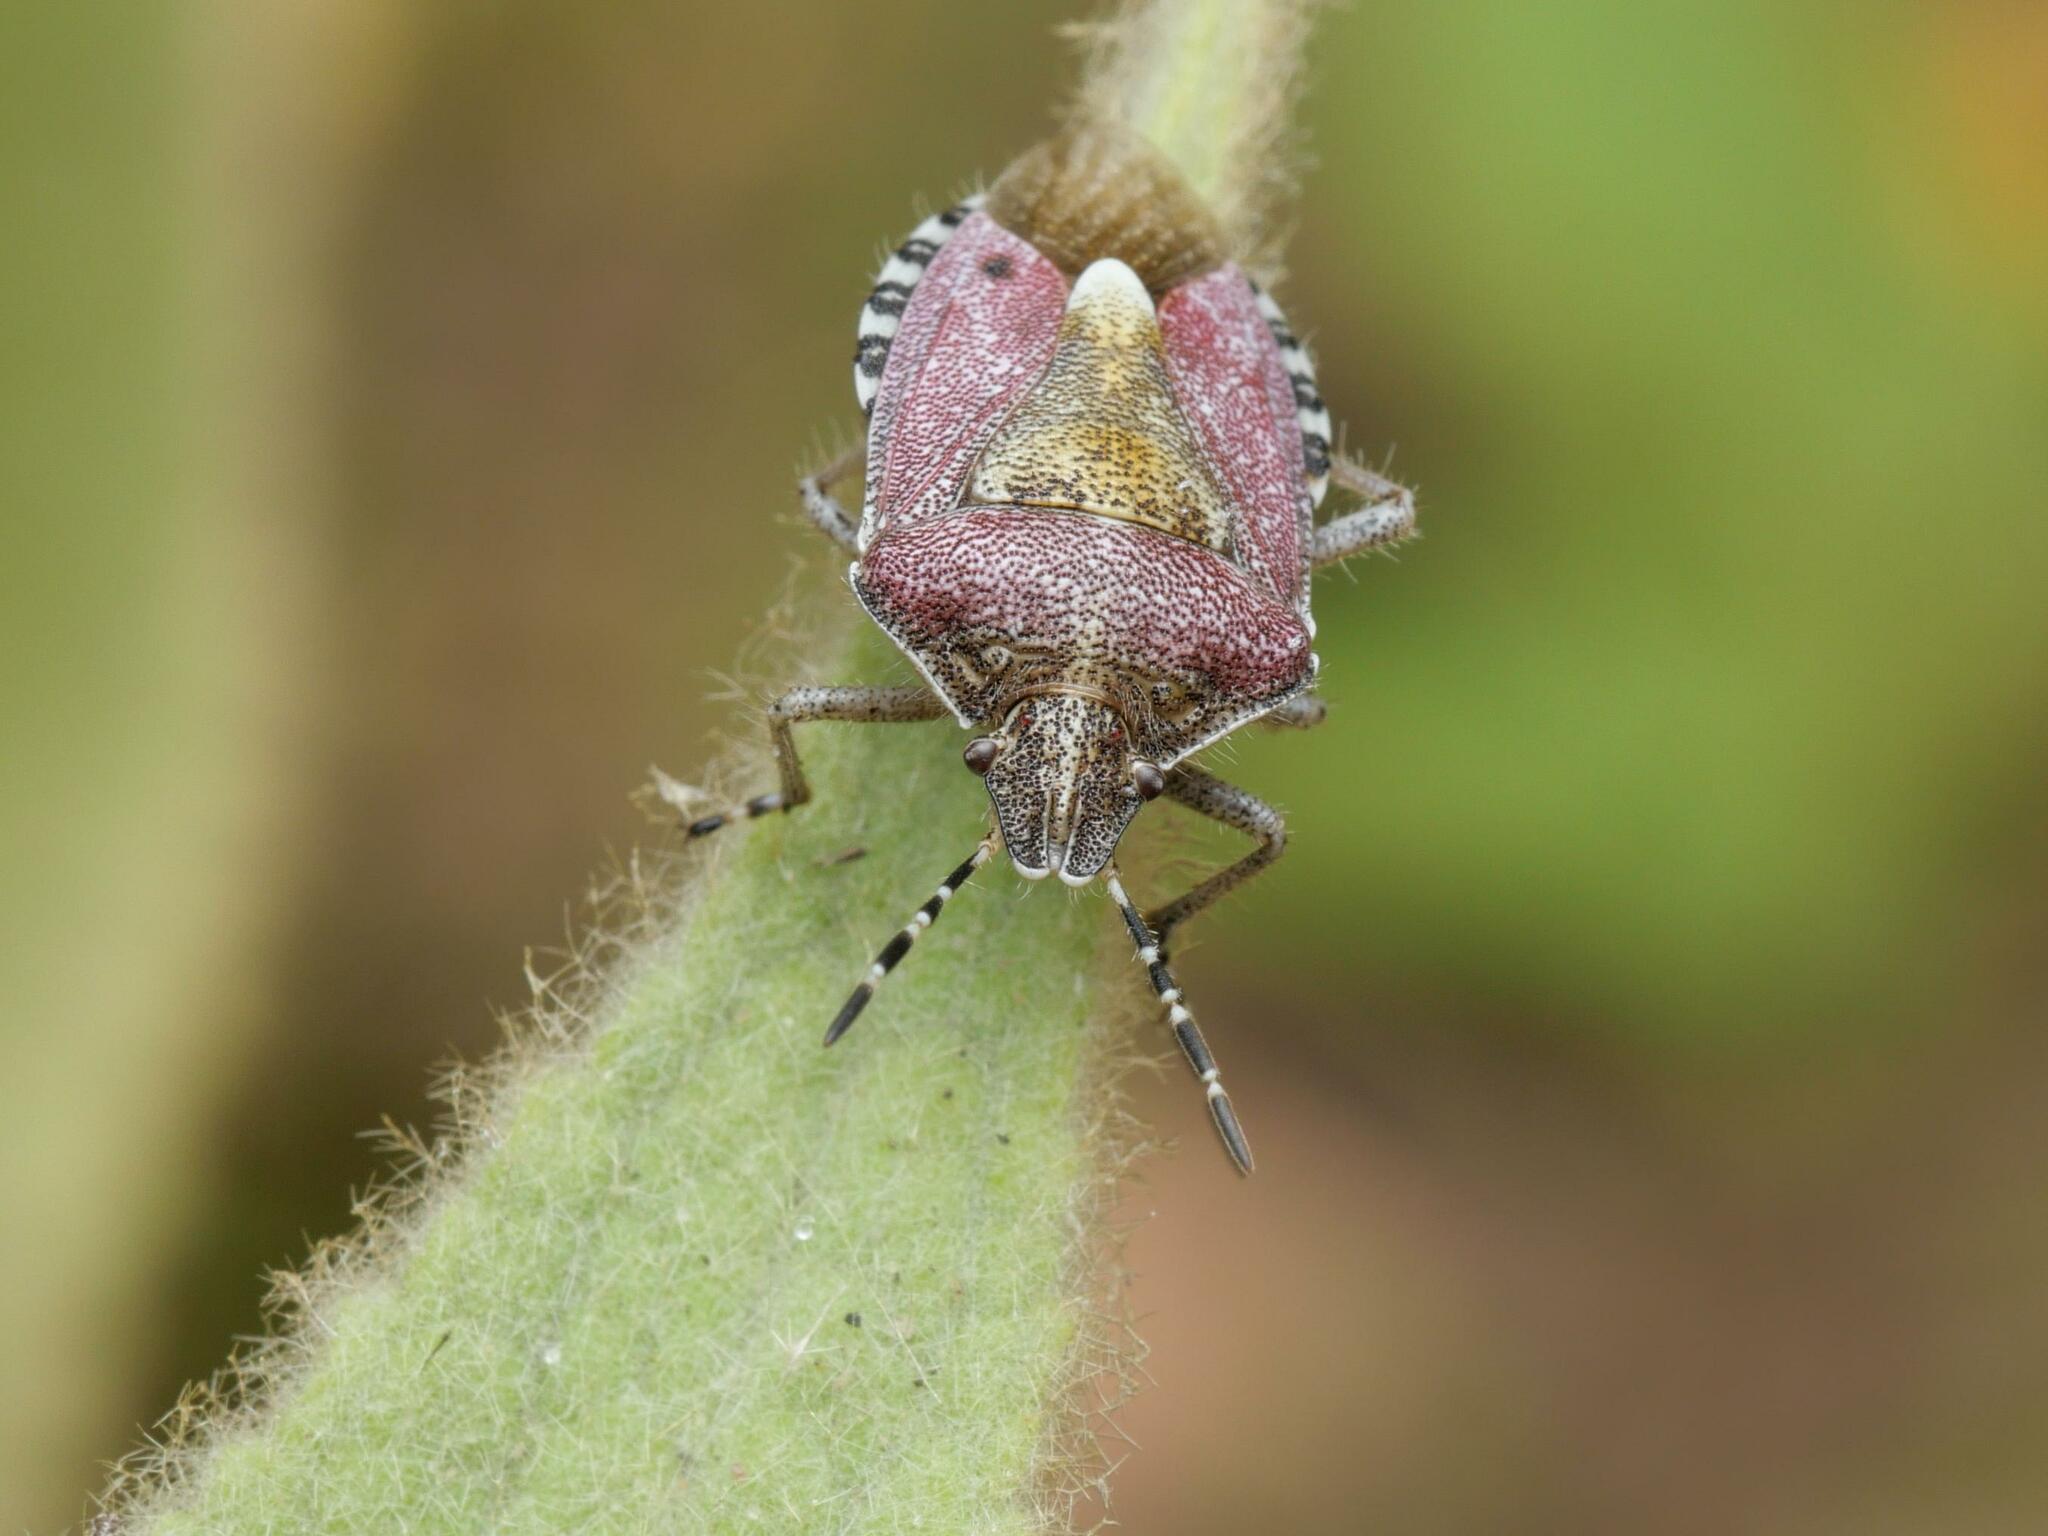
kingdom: Animalia
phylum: Arthropoda
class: Insecta
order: Hemiptera
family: Pentatomidae
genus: Dolycoris
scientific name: Dolycoris baccarum
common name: Sloe bug
